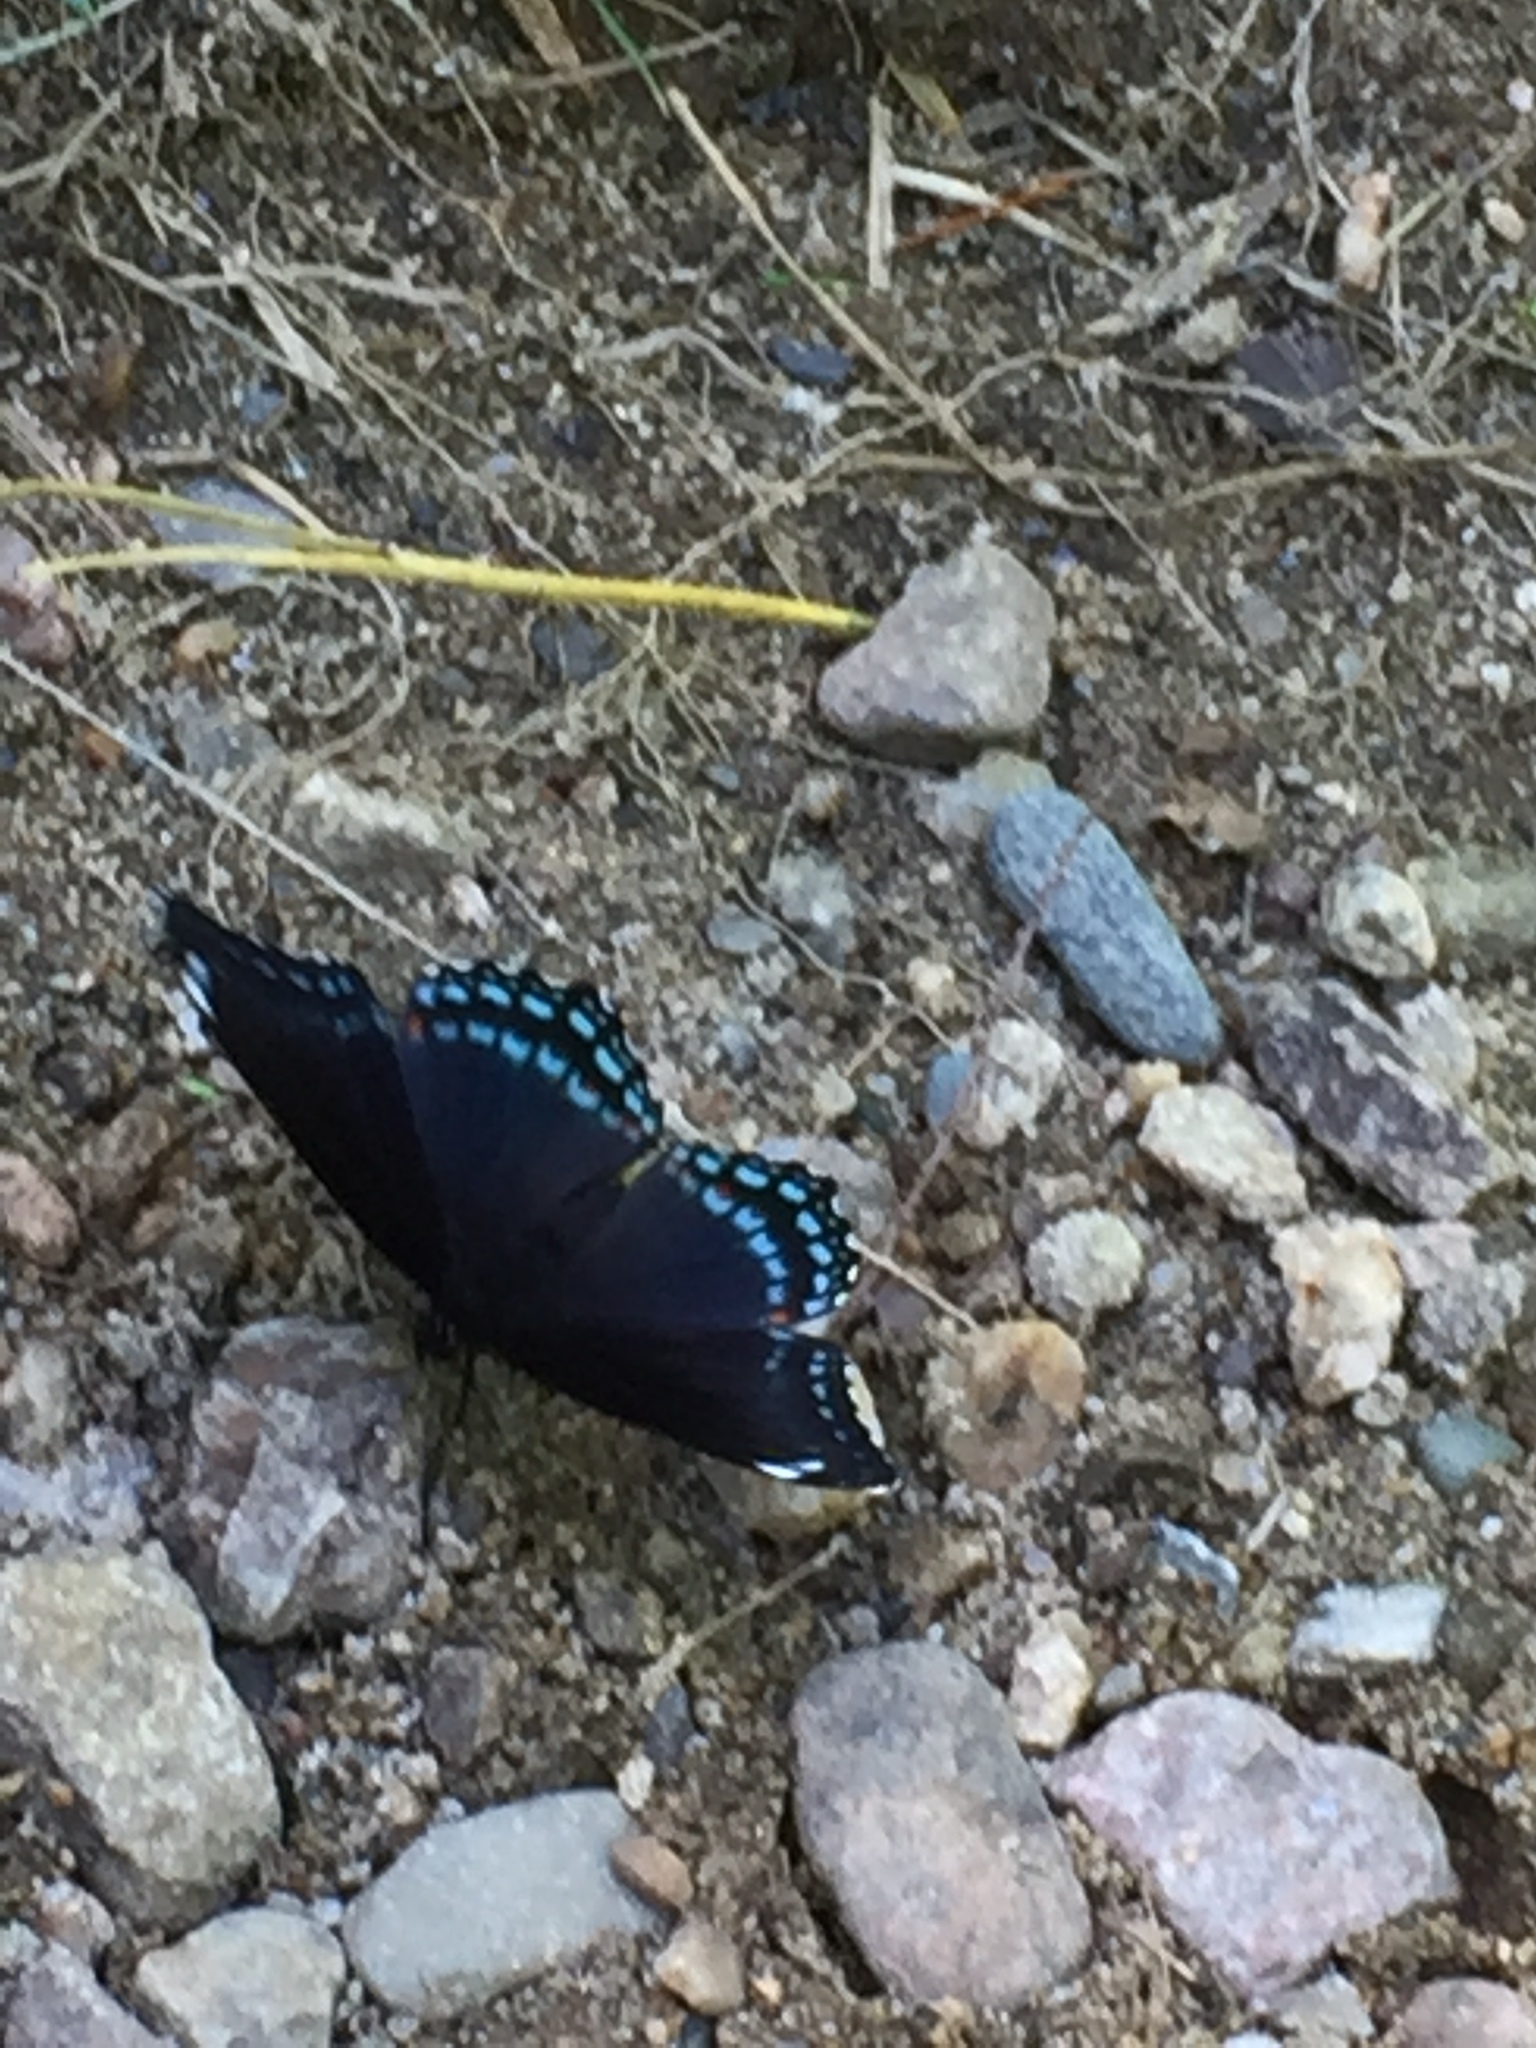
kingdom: Animalia
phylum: Arthropoda
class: Insecta
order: Lepidoptera
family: Nymphalidae
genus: Limenitis
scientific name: Limenitis arthemis
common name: Red-spotted admiral
